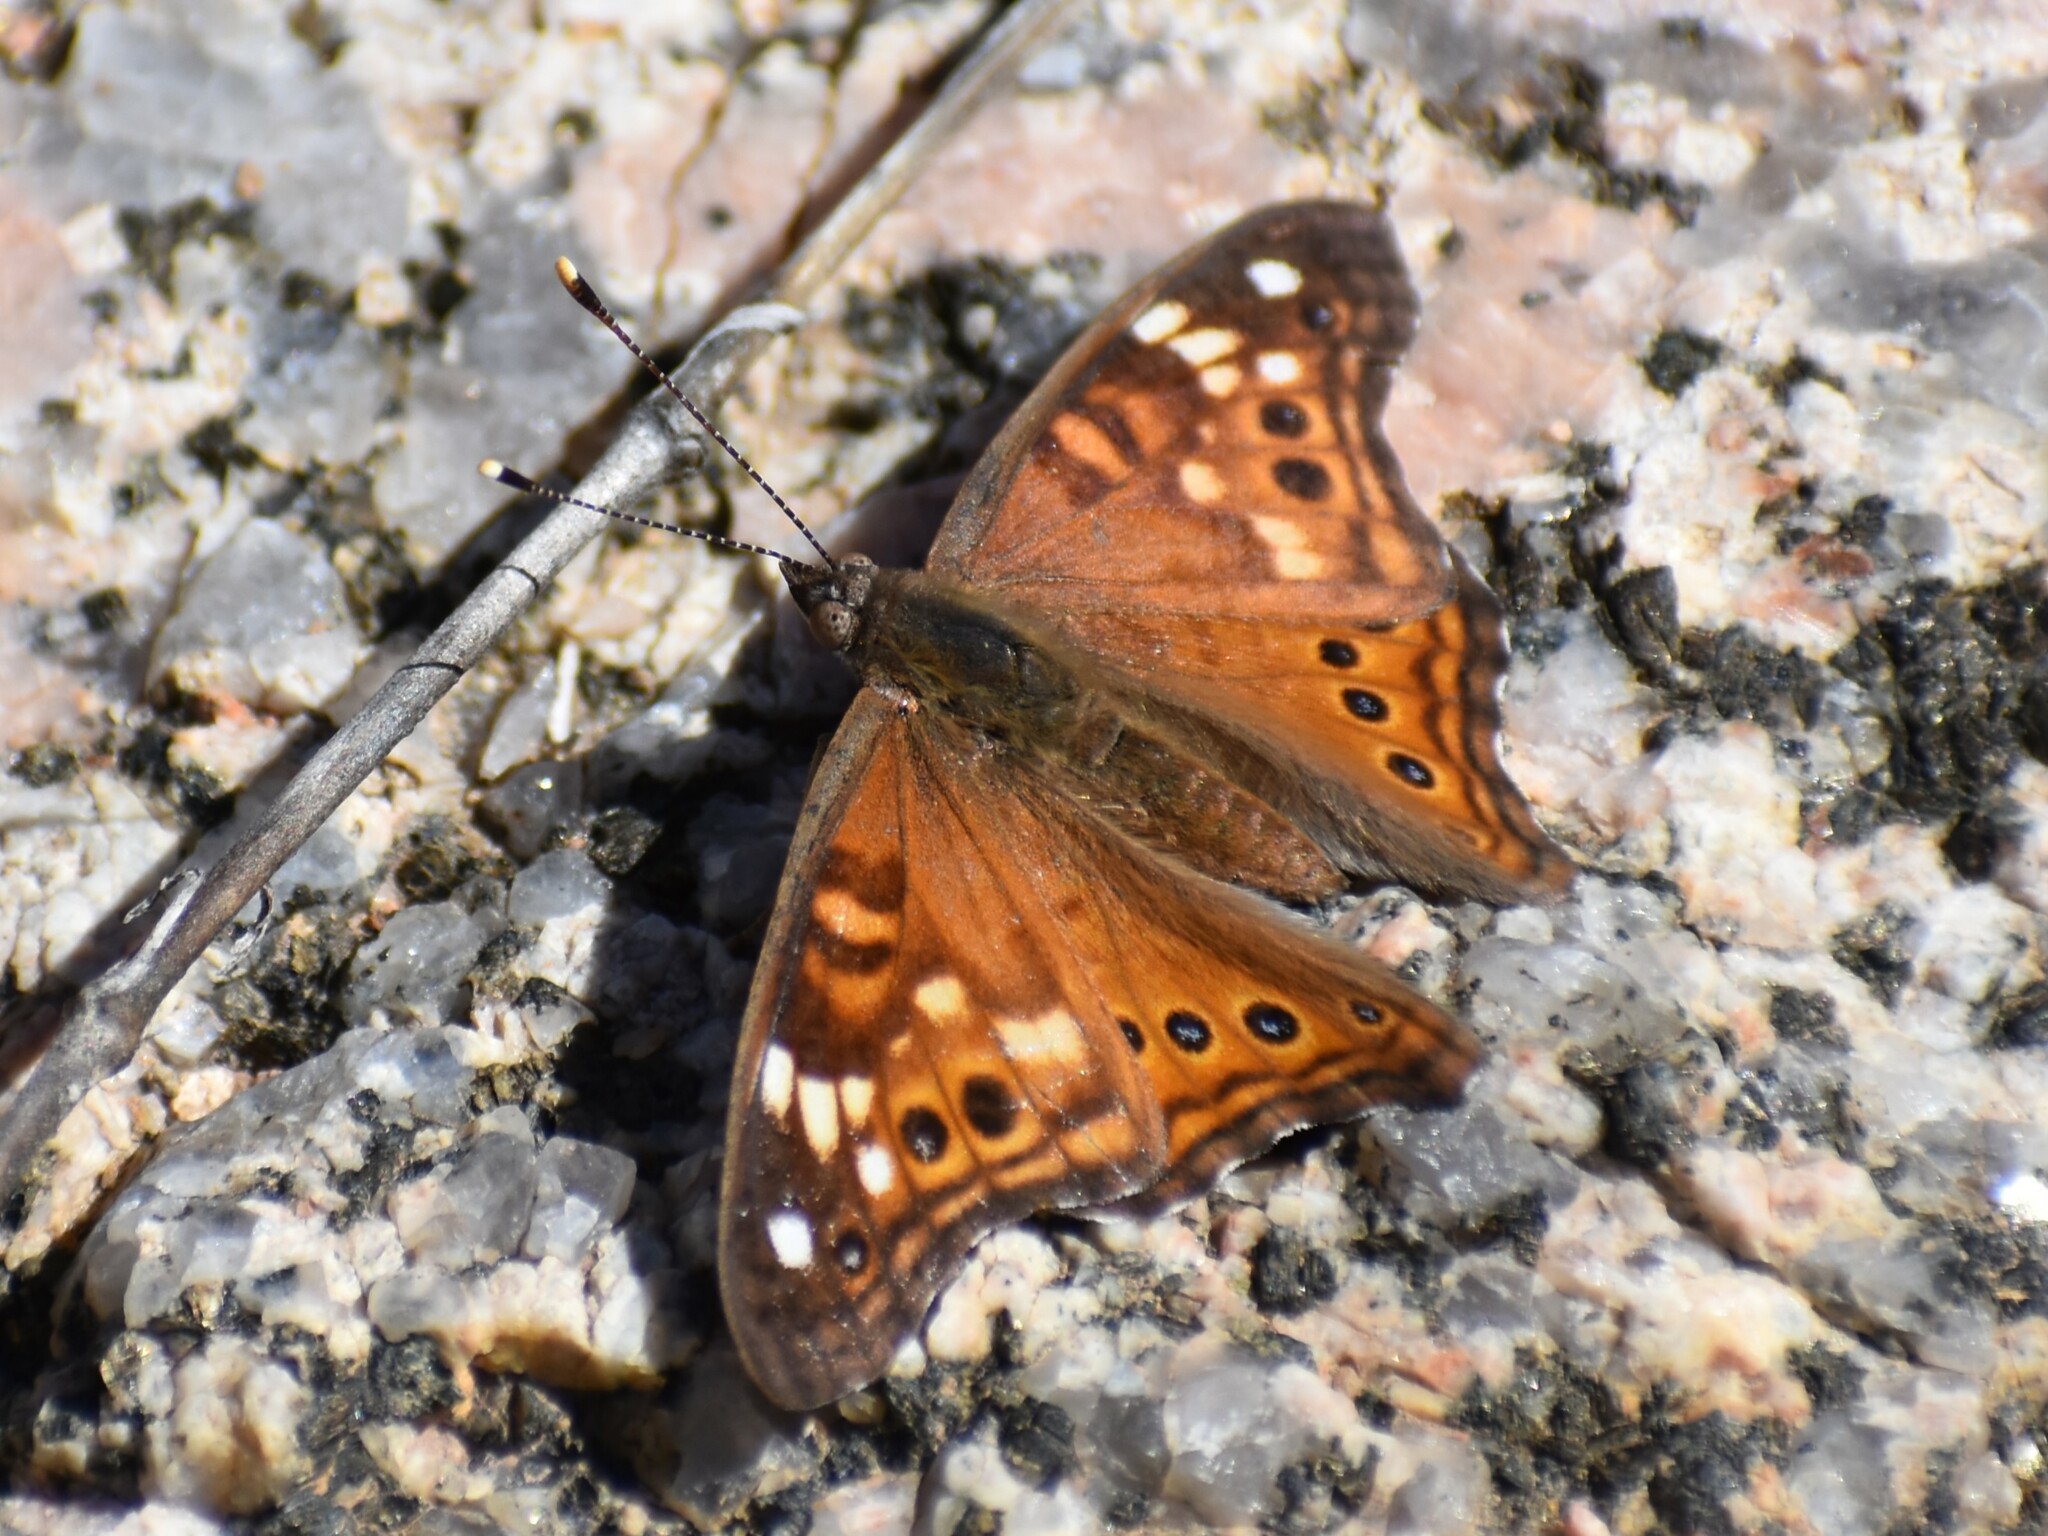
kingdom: Animalia
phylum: Arthropoda
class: Insecta
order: Lepidoptera
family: Nymphalidae
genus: Asterocampa
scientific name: Asterocampa leilia
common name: Empress leilia
